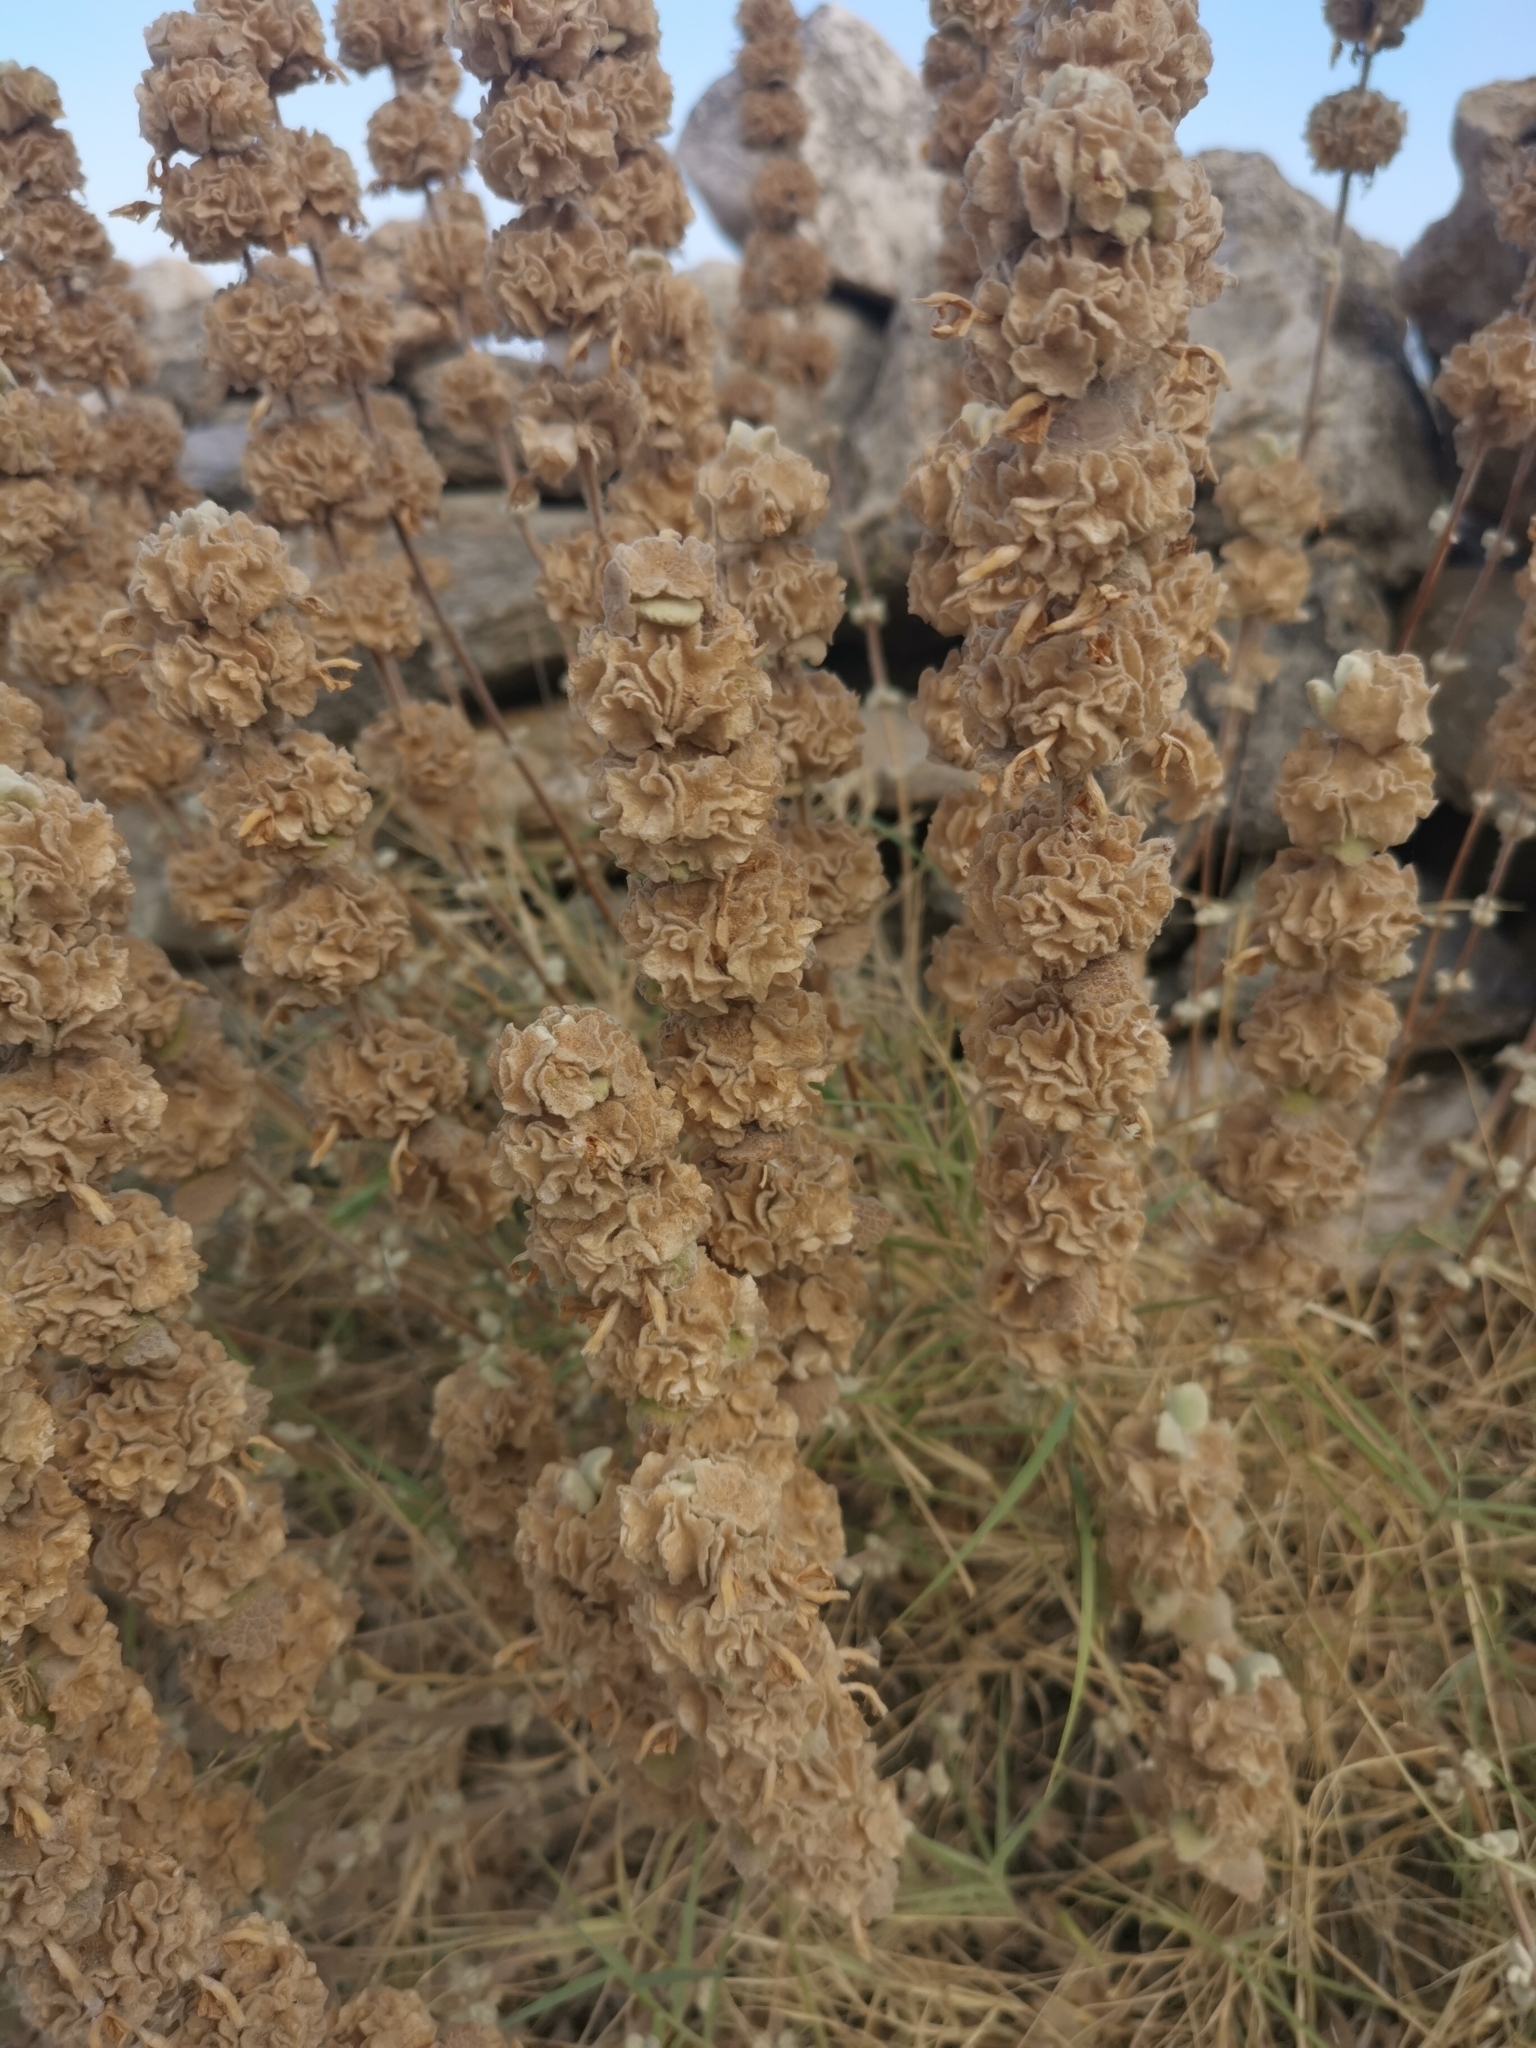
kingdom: Plantae
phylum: Tracheophyta
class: Magnoliopsida
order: Lamiales
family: Lamiaceae
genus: Pseudodictamnus
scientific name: Pseudodictamnus acetabulosus
